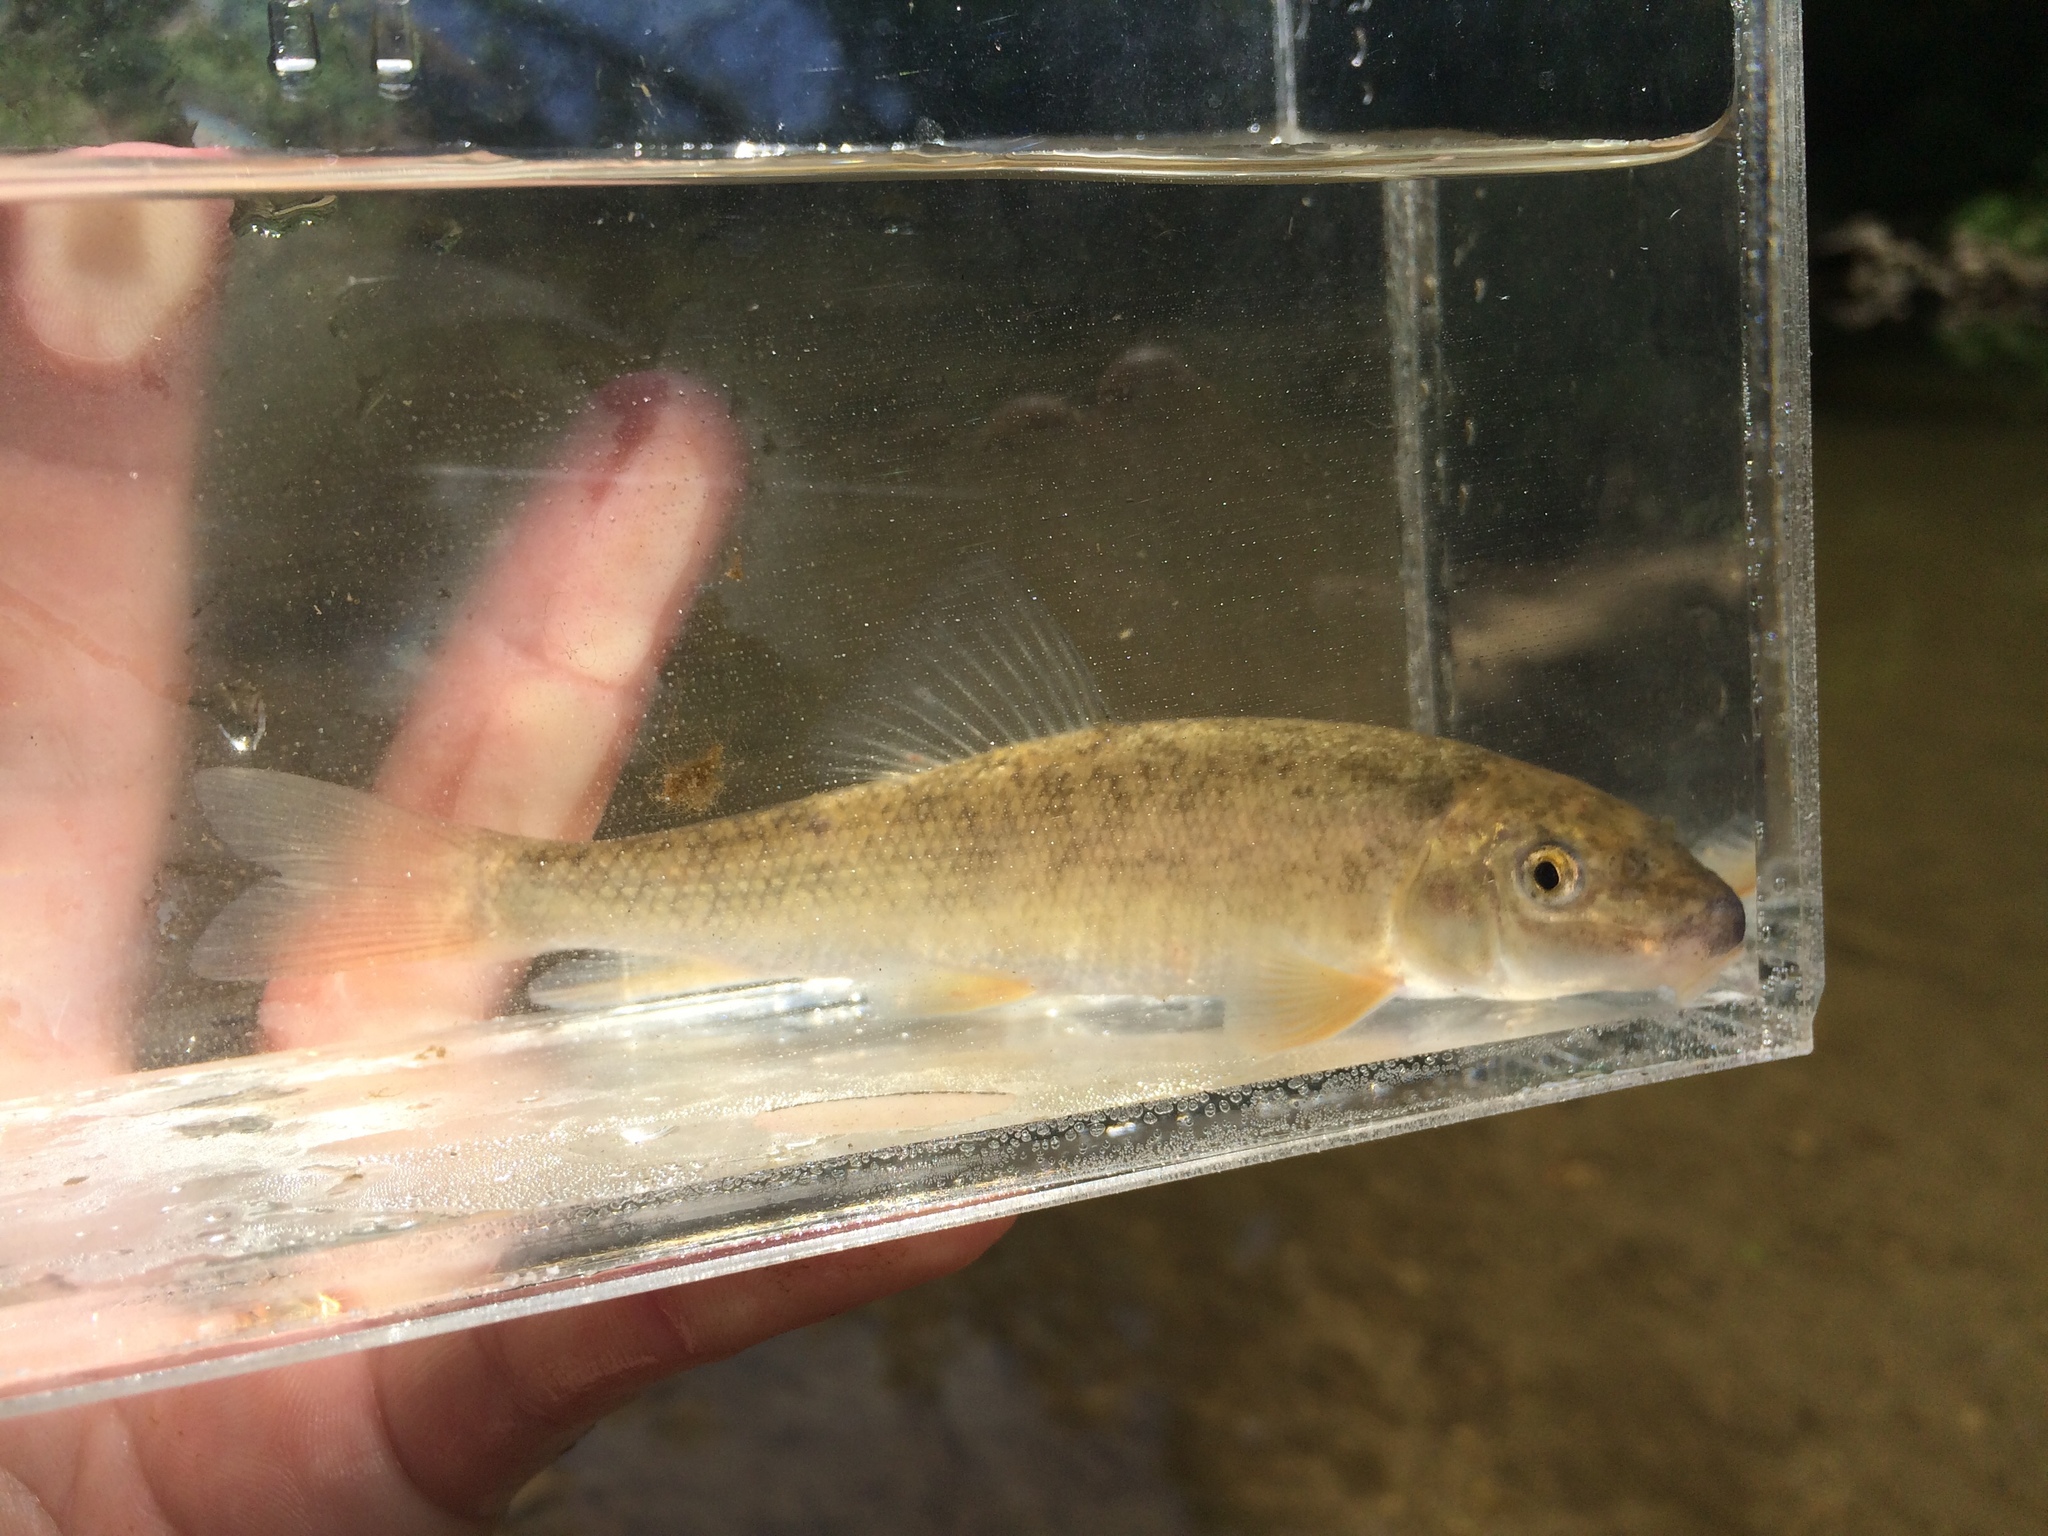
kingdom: Animalia
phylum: Chordata
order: Cypriniformes
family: Catostomidae
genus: Catostomus
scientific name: Catostomus commersonii
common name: White sucker
